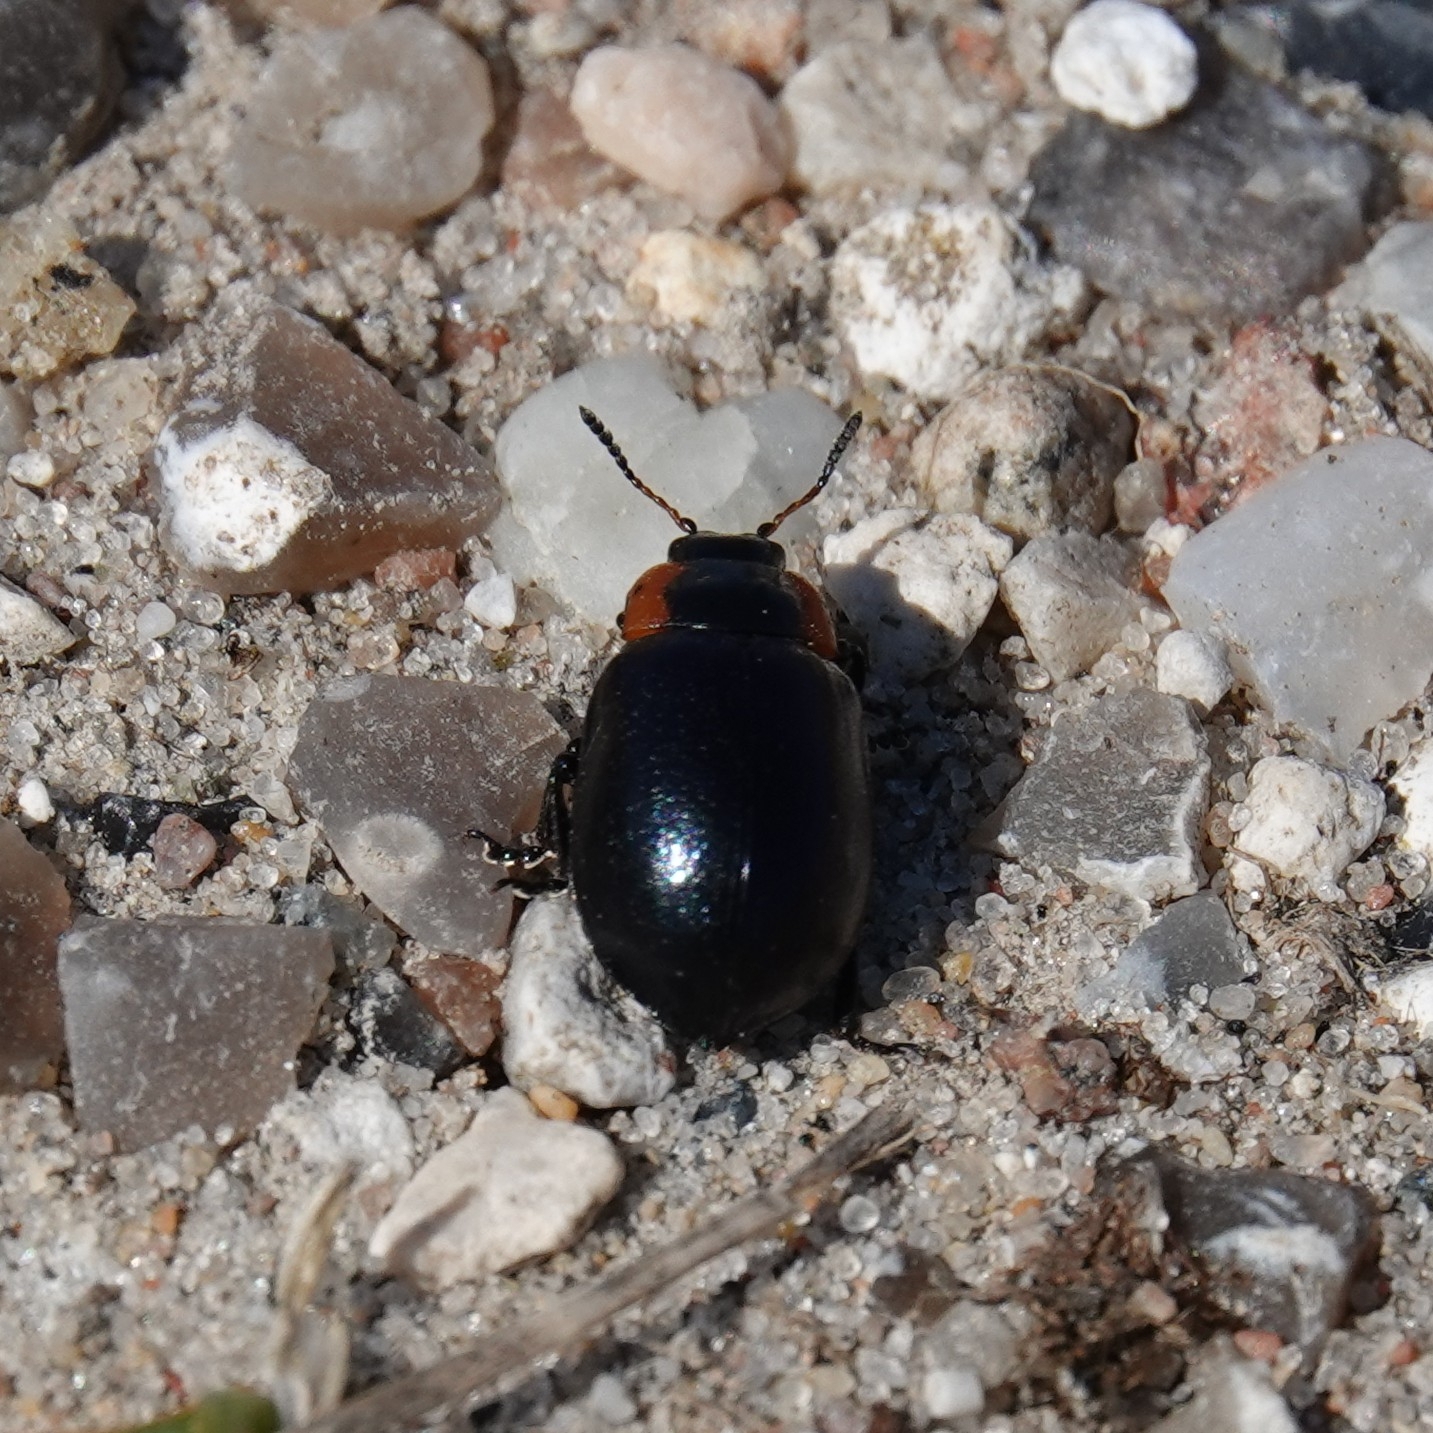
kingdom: Animalia
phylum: Arthropoda
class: Insecta
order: Coleoptera
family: Chrysomelidae
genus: Chrysomela
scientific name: Chrysomela collaris
